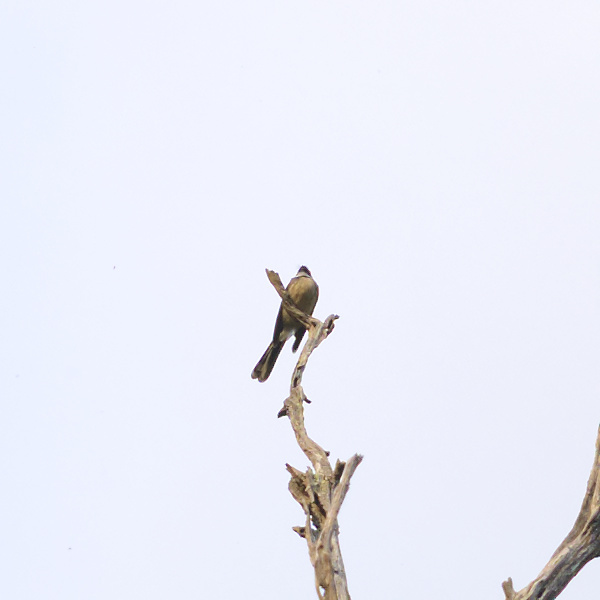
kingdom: Animalia
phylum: Chordata
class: Aves
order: Passeriformes
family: Rhipiduridae
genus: Rhipidura
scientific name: Rhipidura albiscapa
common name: Grey fantail
